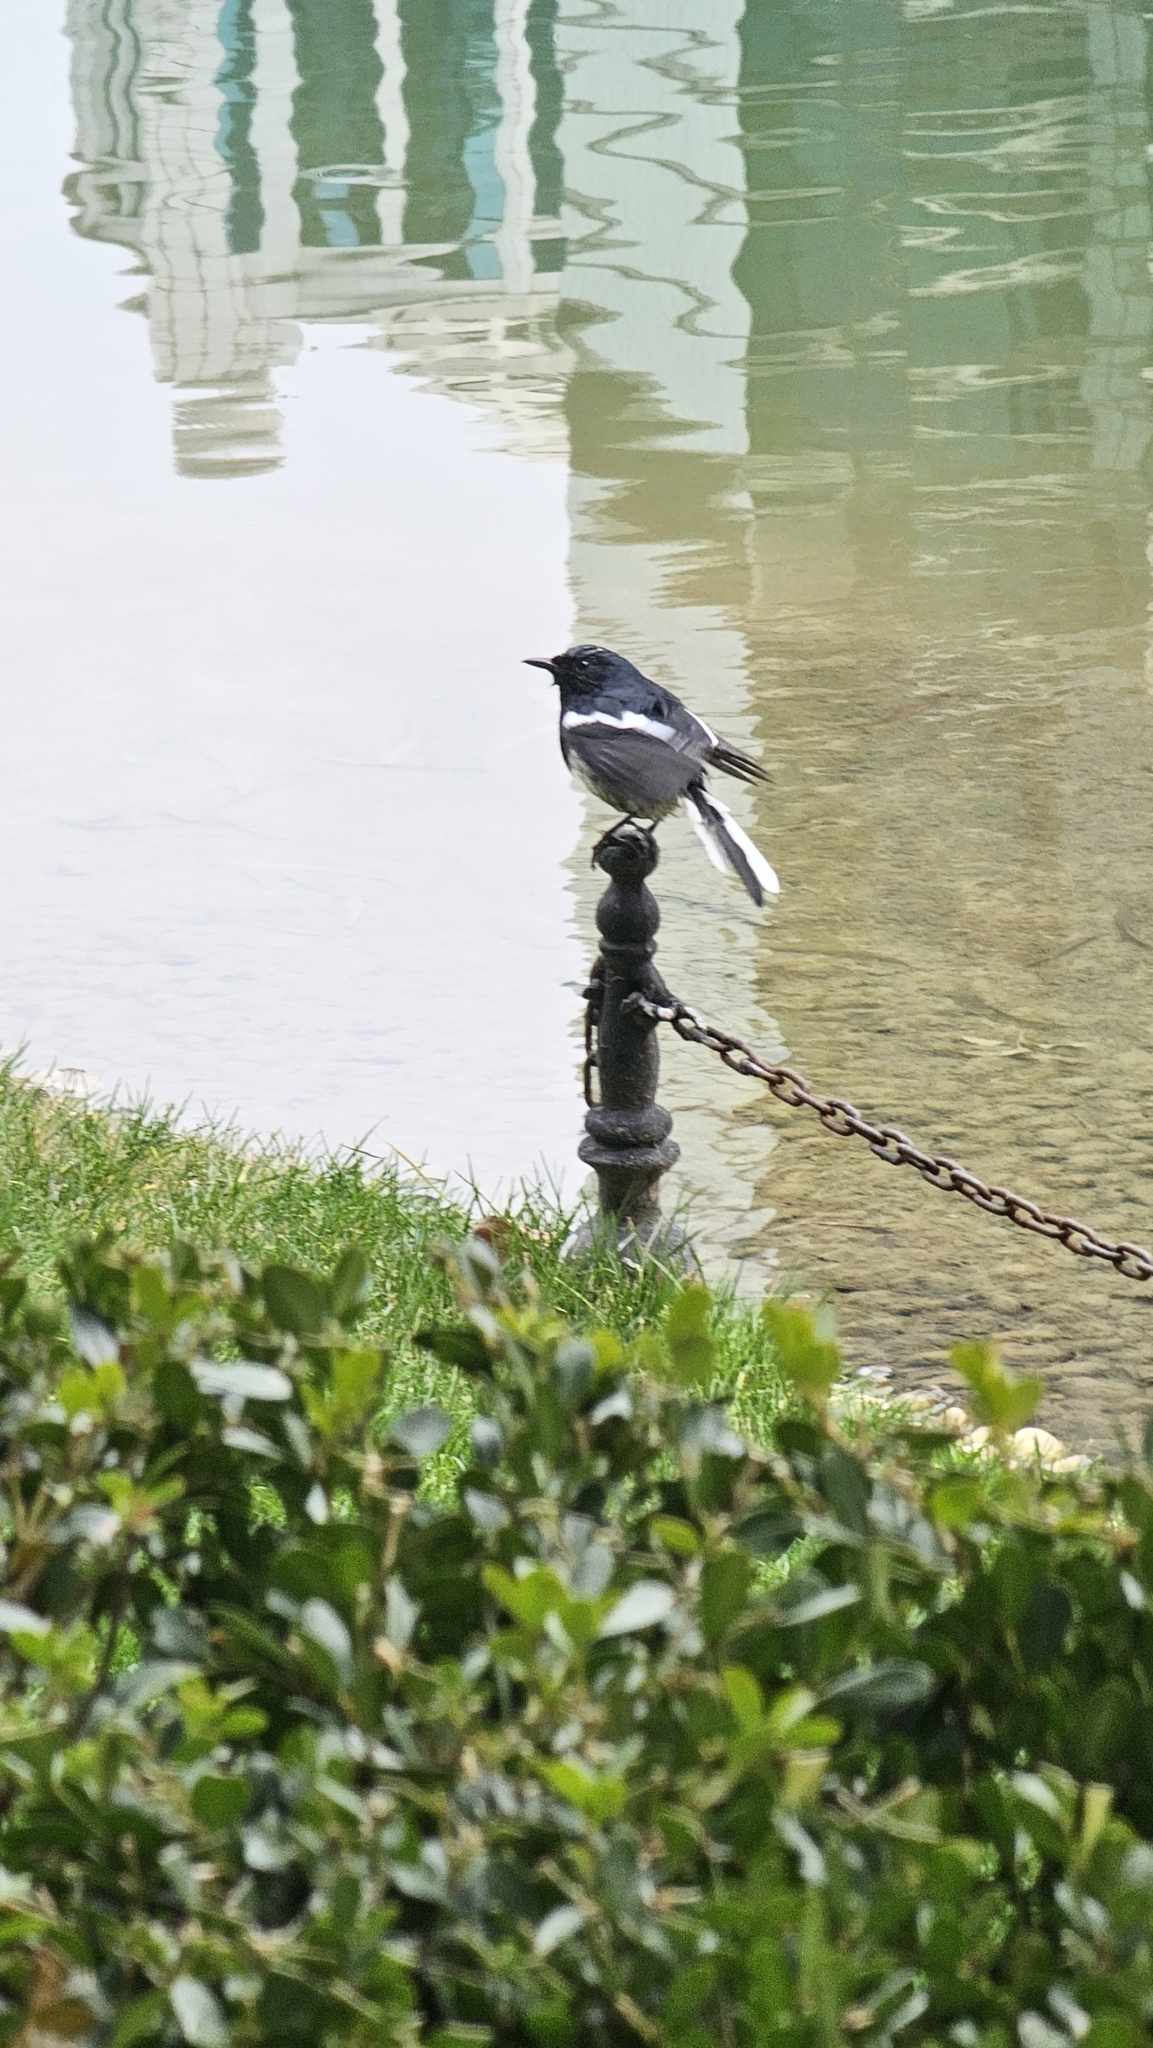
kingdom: Animalia
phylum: Chordata
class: Aves
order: Passeriformes
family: Muscicapidae
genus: Copsychus
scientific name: Copsychus saularis
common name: Oriental magpie-robin
